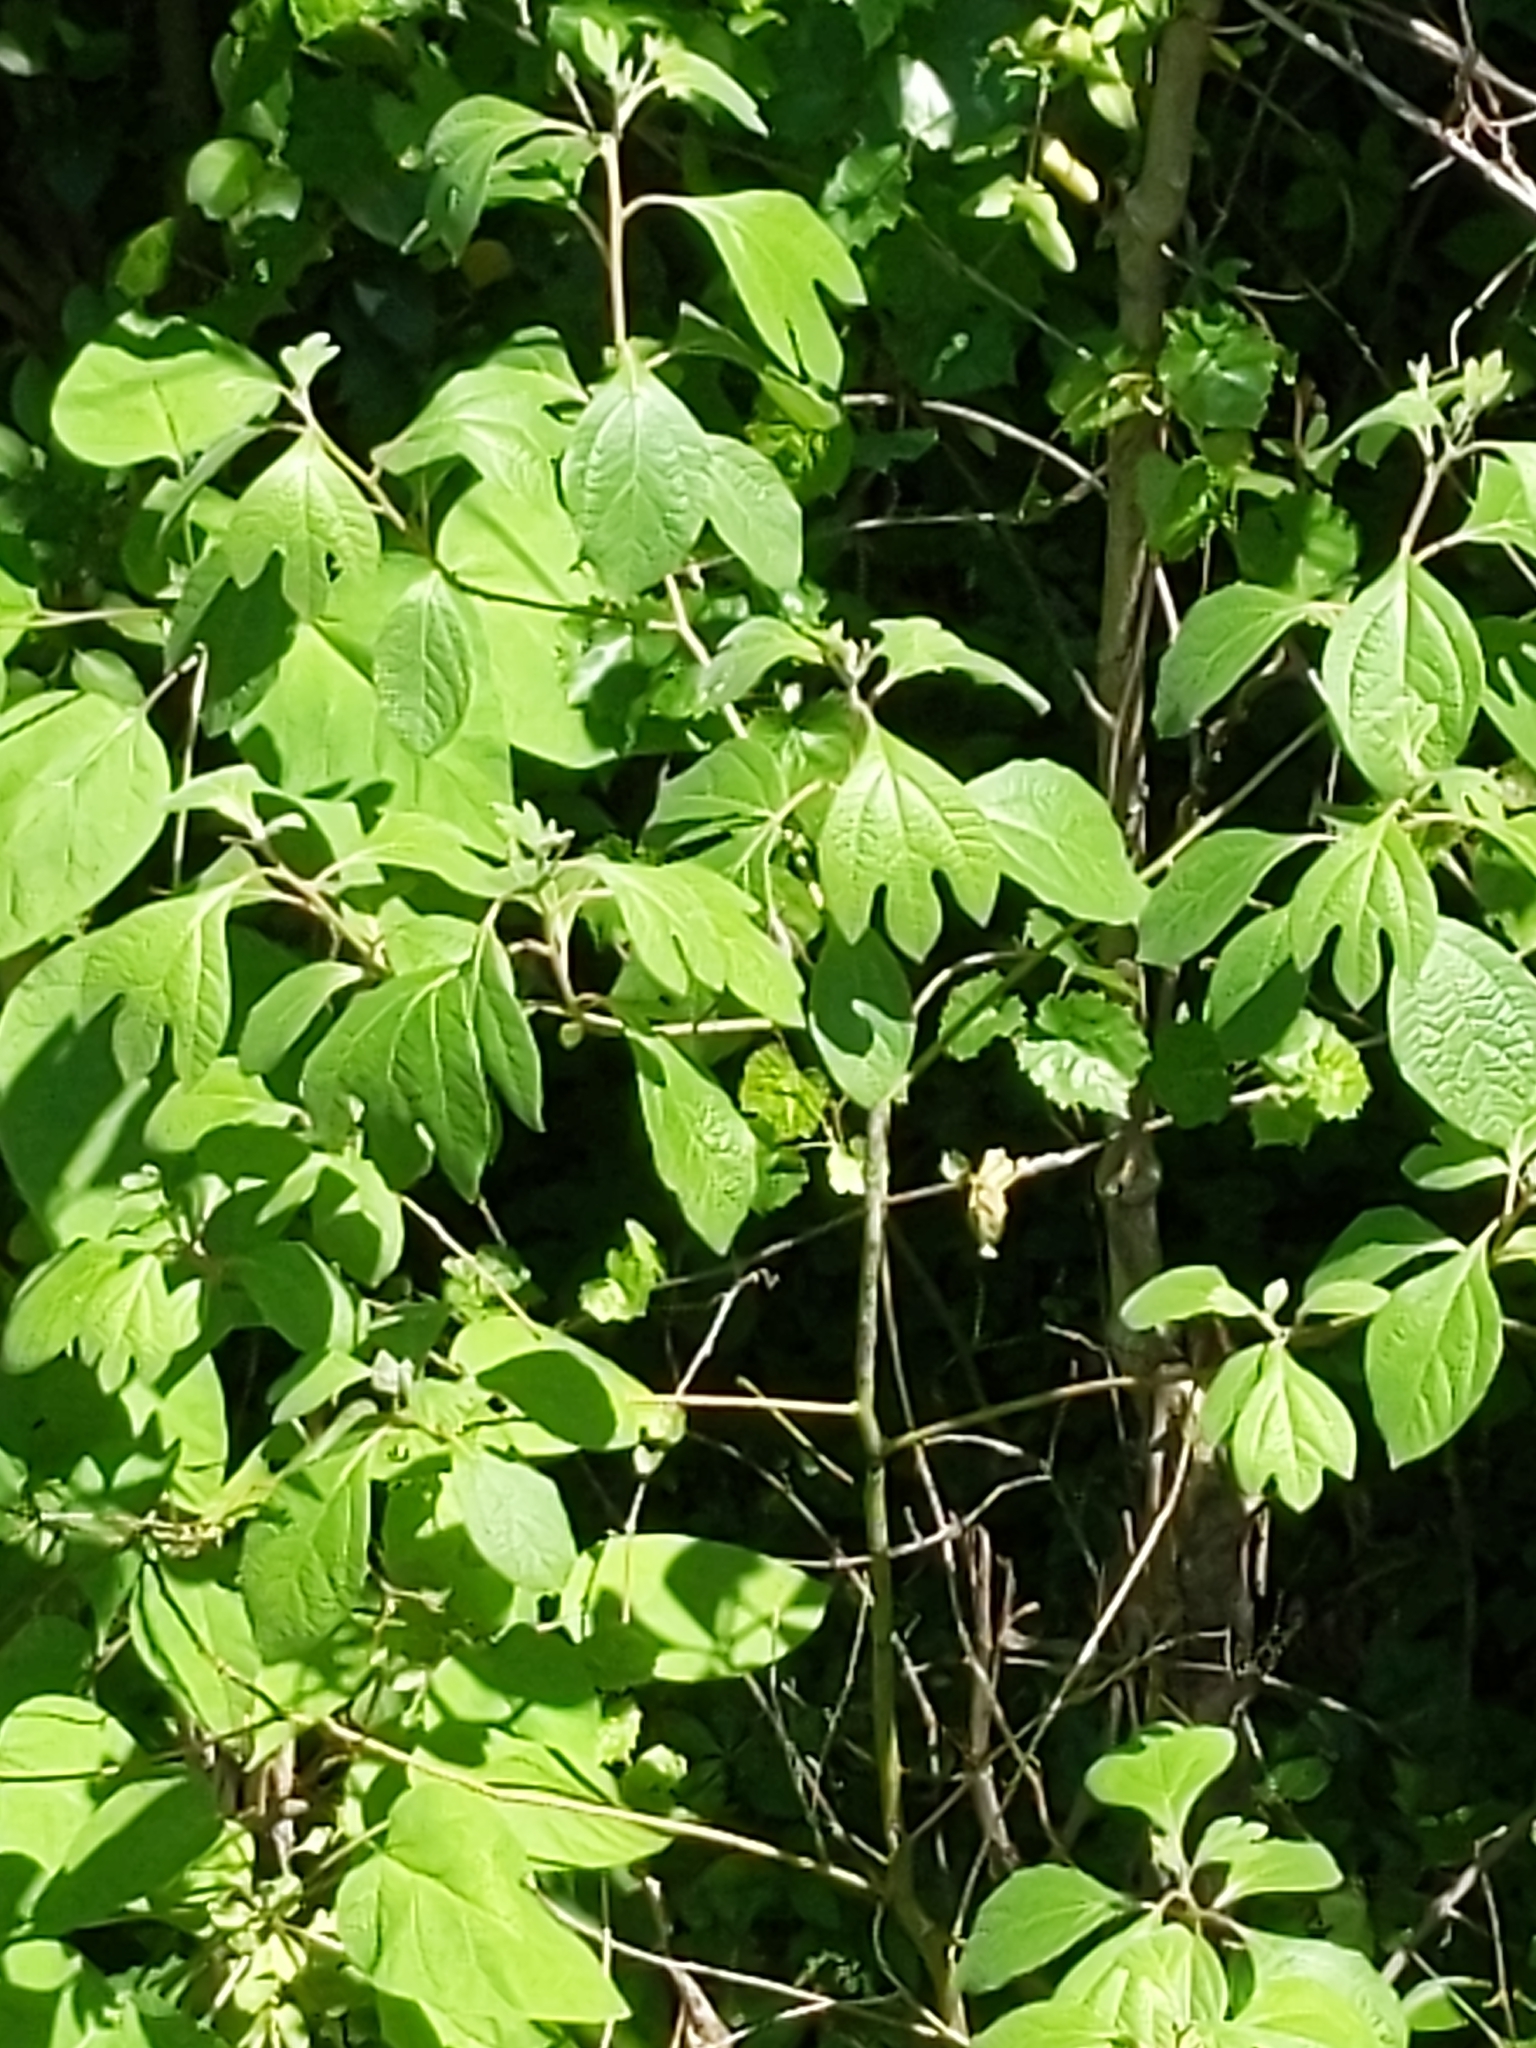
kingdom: Plantae
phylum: Tracheophyta
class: Magnoliopsida
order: Laurales
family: Lauraceae
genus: Sassafras
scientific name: Sassafras albidum
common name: Sassafras
